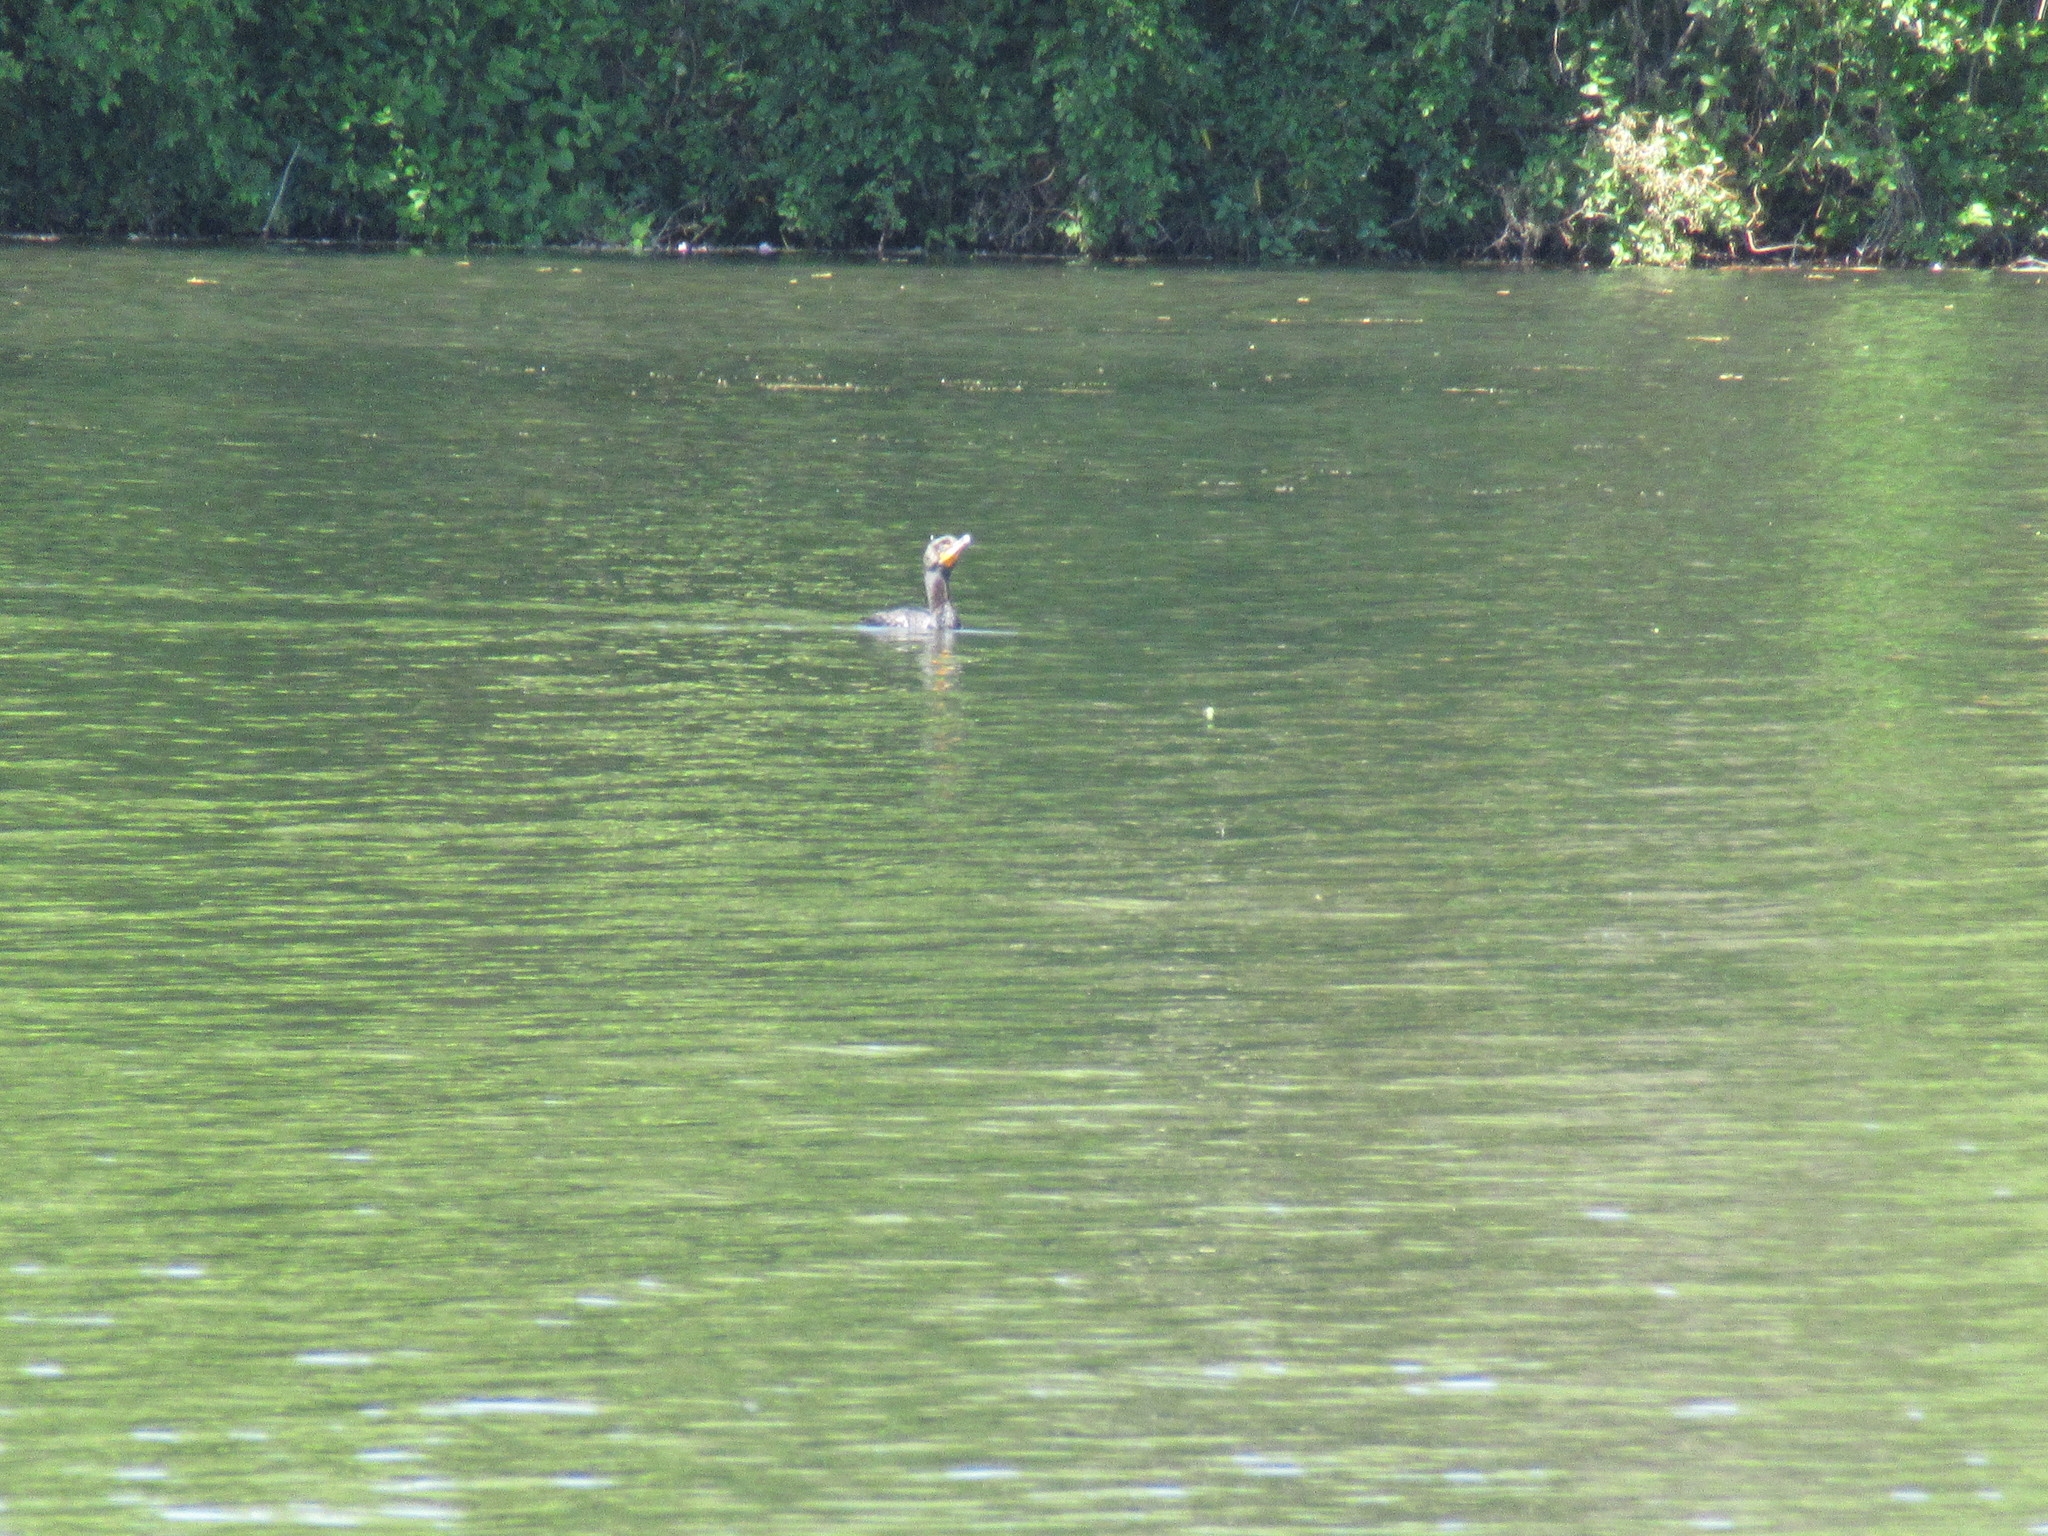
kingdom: Animalia
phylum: Chordata
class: Aves
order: Suliformes
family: Phalacrocoracidae
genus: Phalacrocorax
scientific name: Phalacrocorax auritus
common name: Double-crested cormorant
